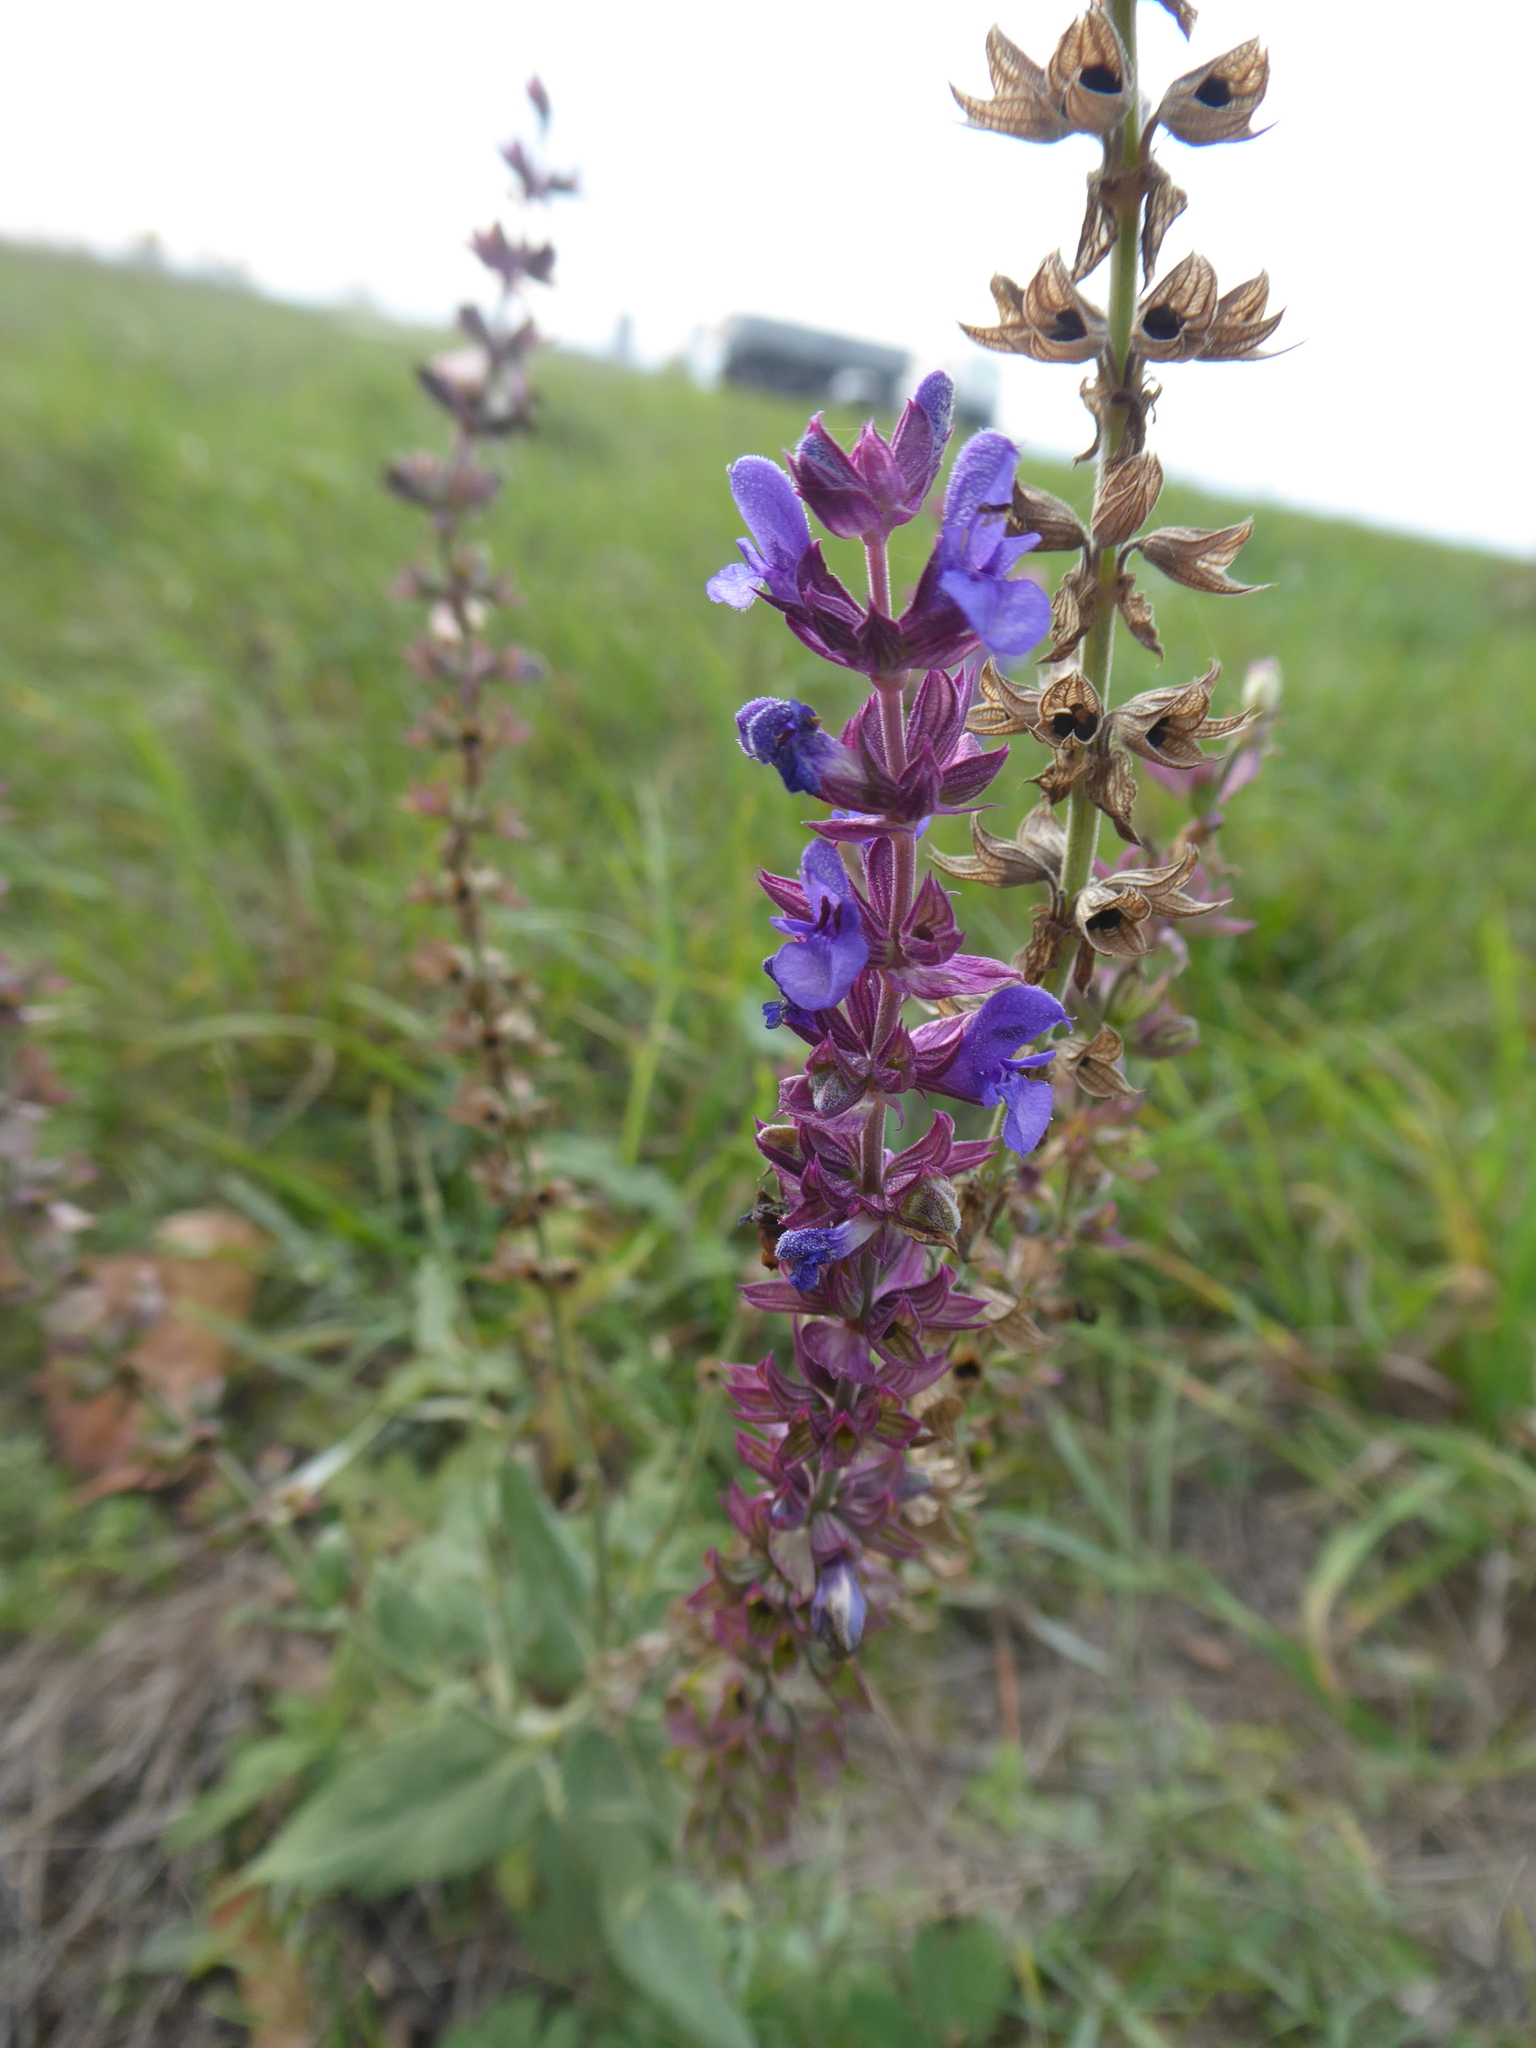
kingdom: Plantae
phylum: Tracheophyta
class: Magnoliopsida
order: Lamiales
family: Lamiaceae
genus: Salvia
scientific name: Salvia nemorosa
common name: Balkan clary
